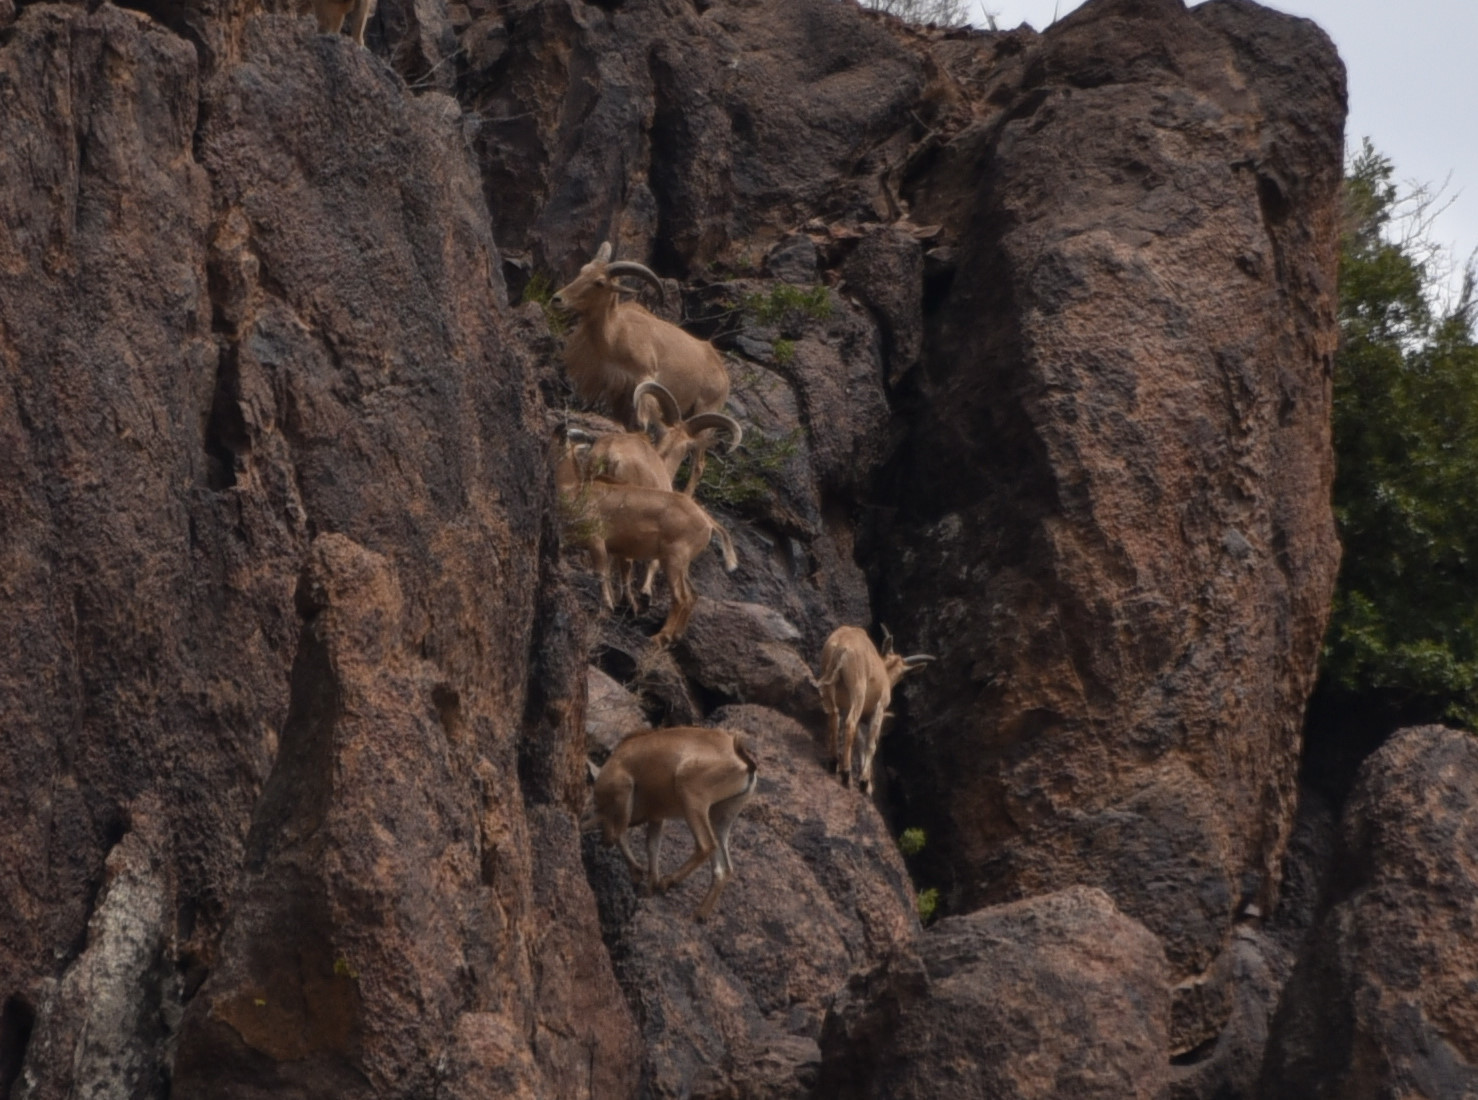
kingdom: Animalia
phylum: Chordata
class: Mammalia
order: Artiodactyla
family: Bovidae
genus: Ammotragus
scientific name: Ammotragus lervia
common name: Barbary sheep
